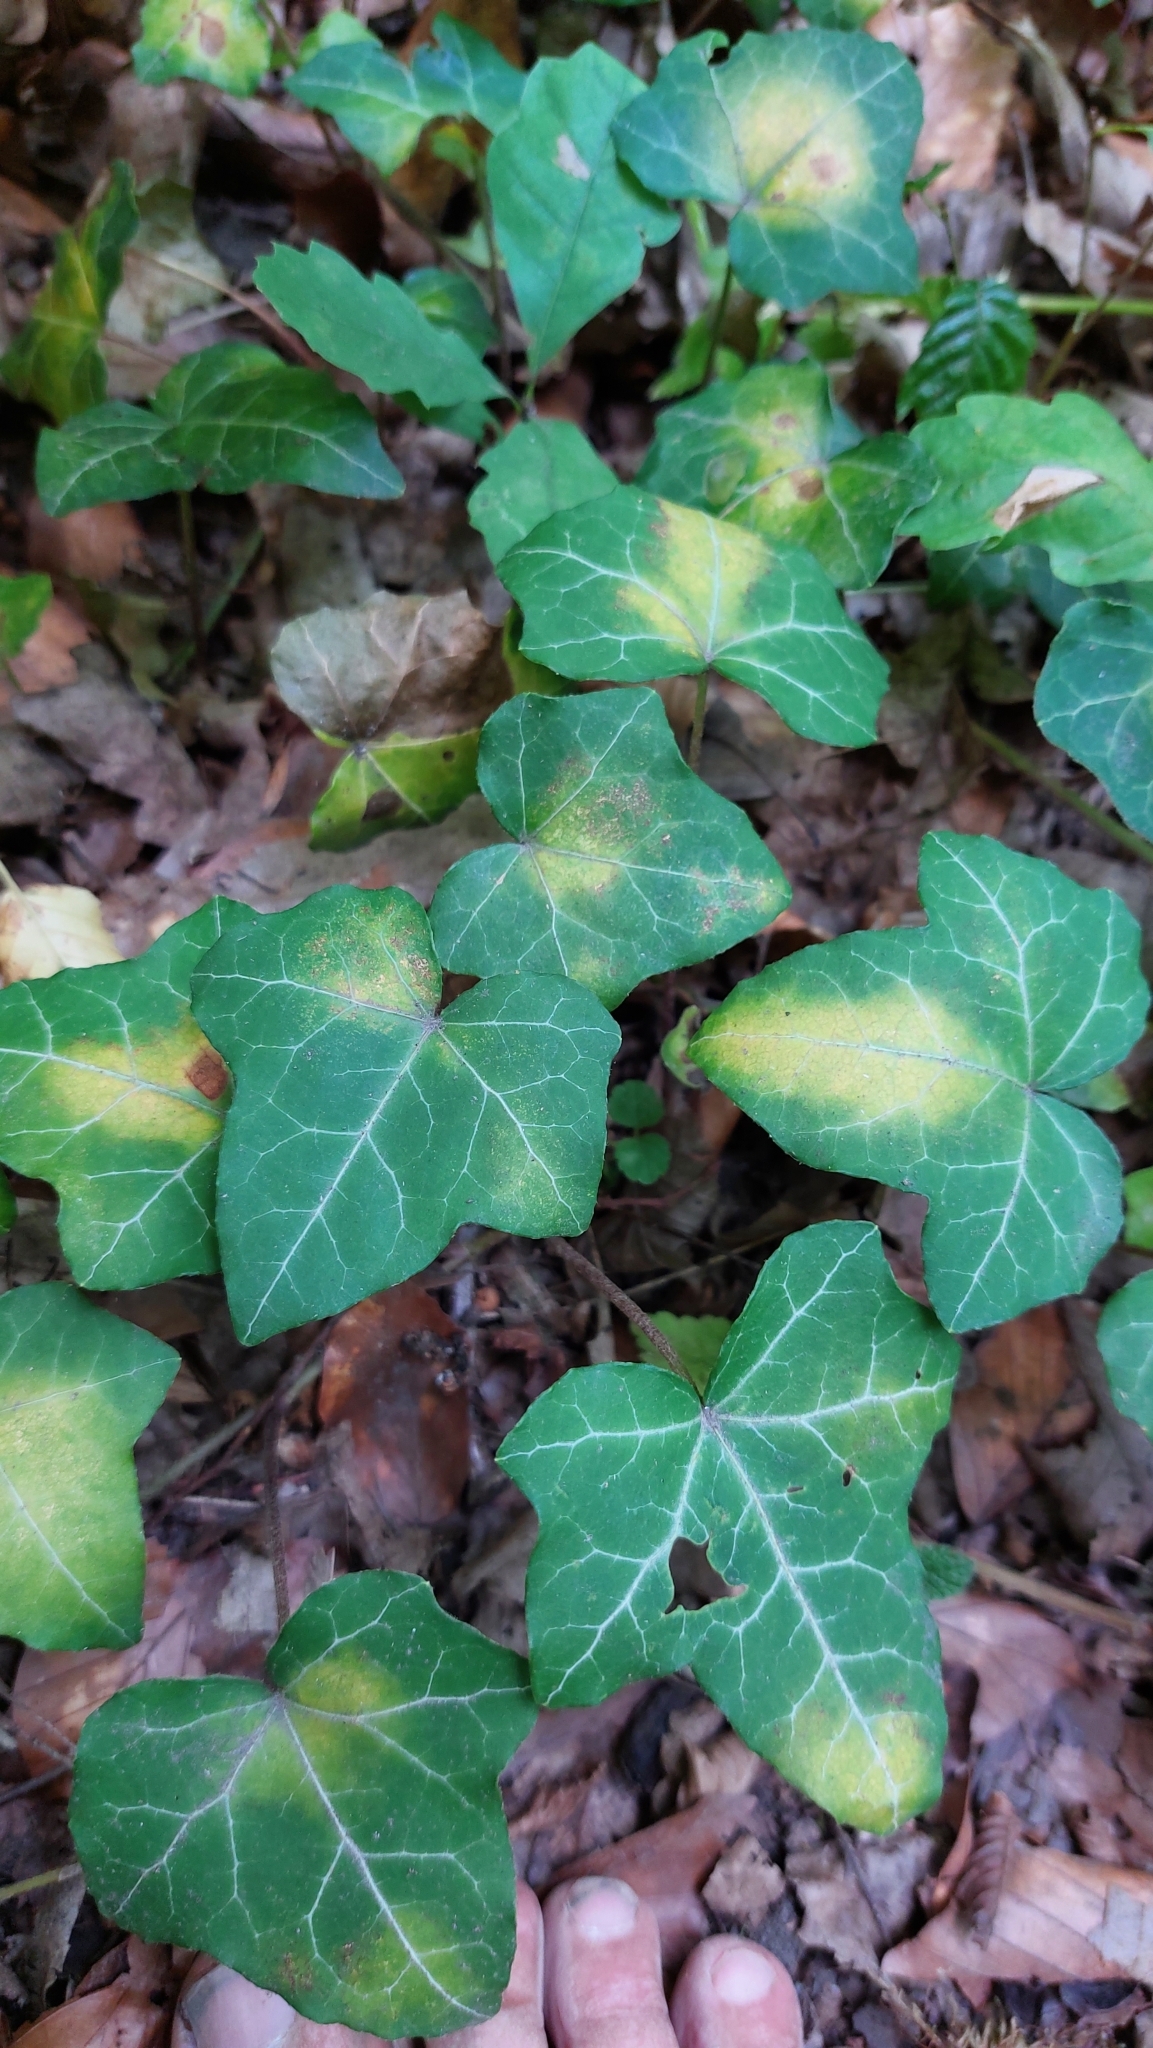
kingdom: Plantae
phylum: Tracheophyta
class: Magnoliopsida
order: Apiales
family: Araliaceae
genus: Hedera
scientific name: Hedera helix
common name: Ivy
